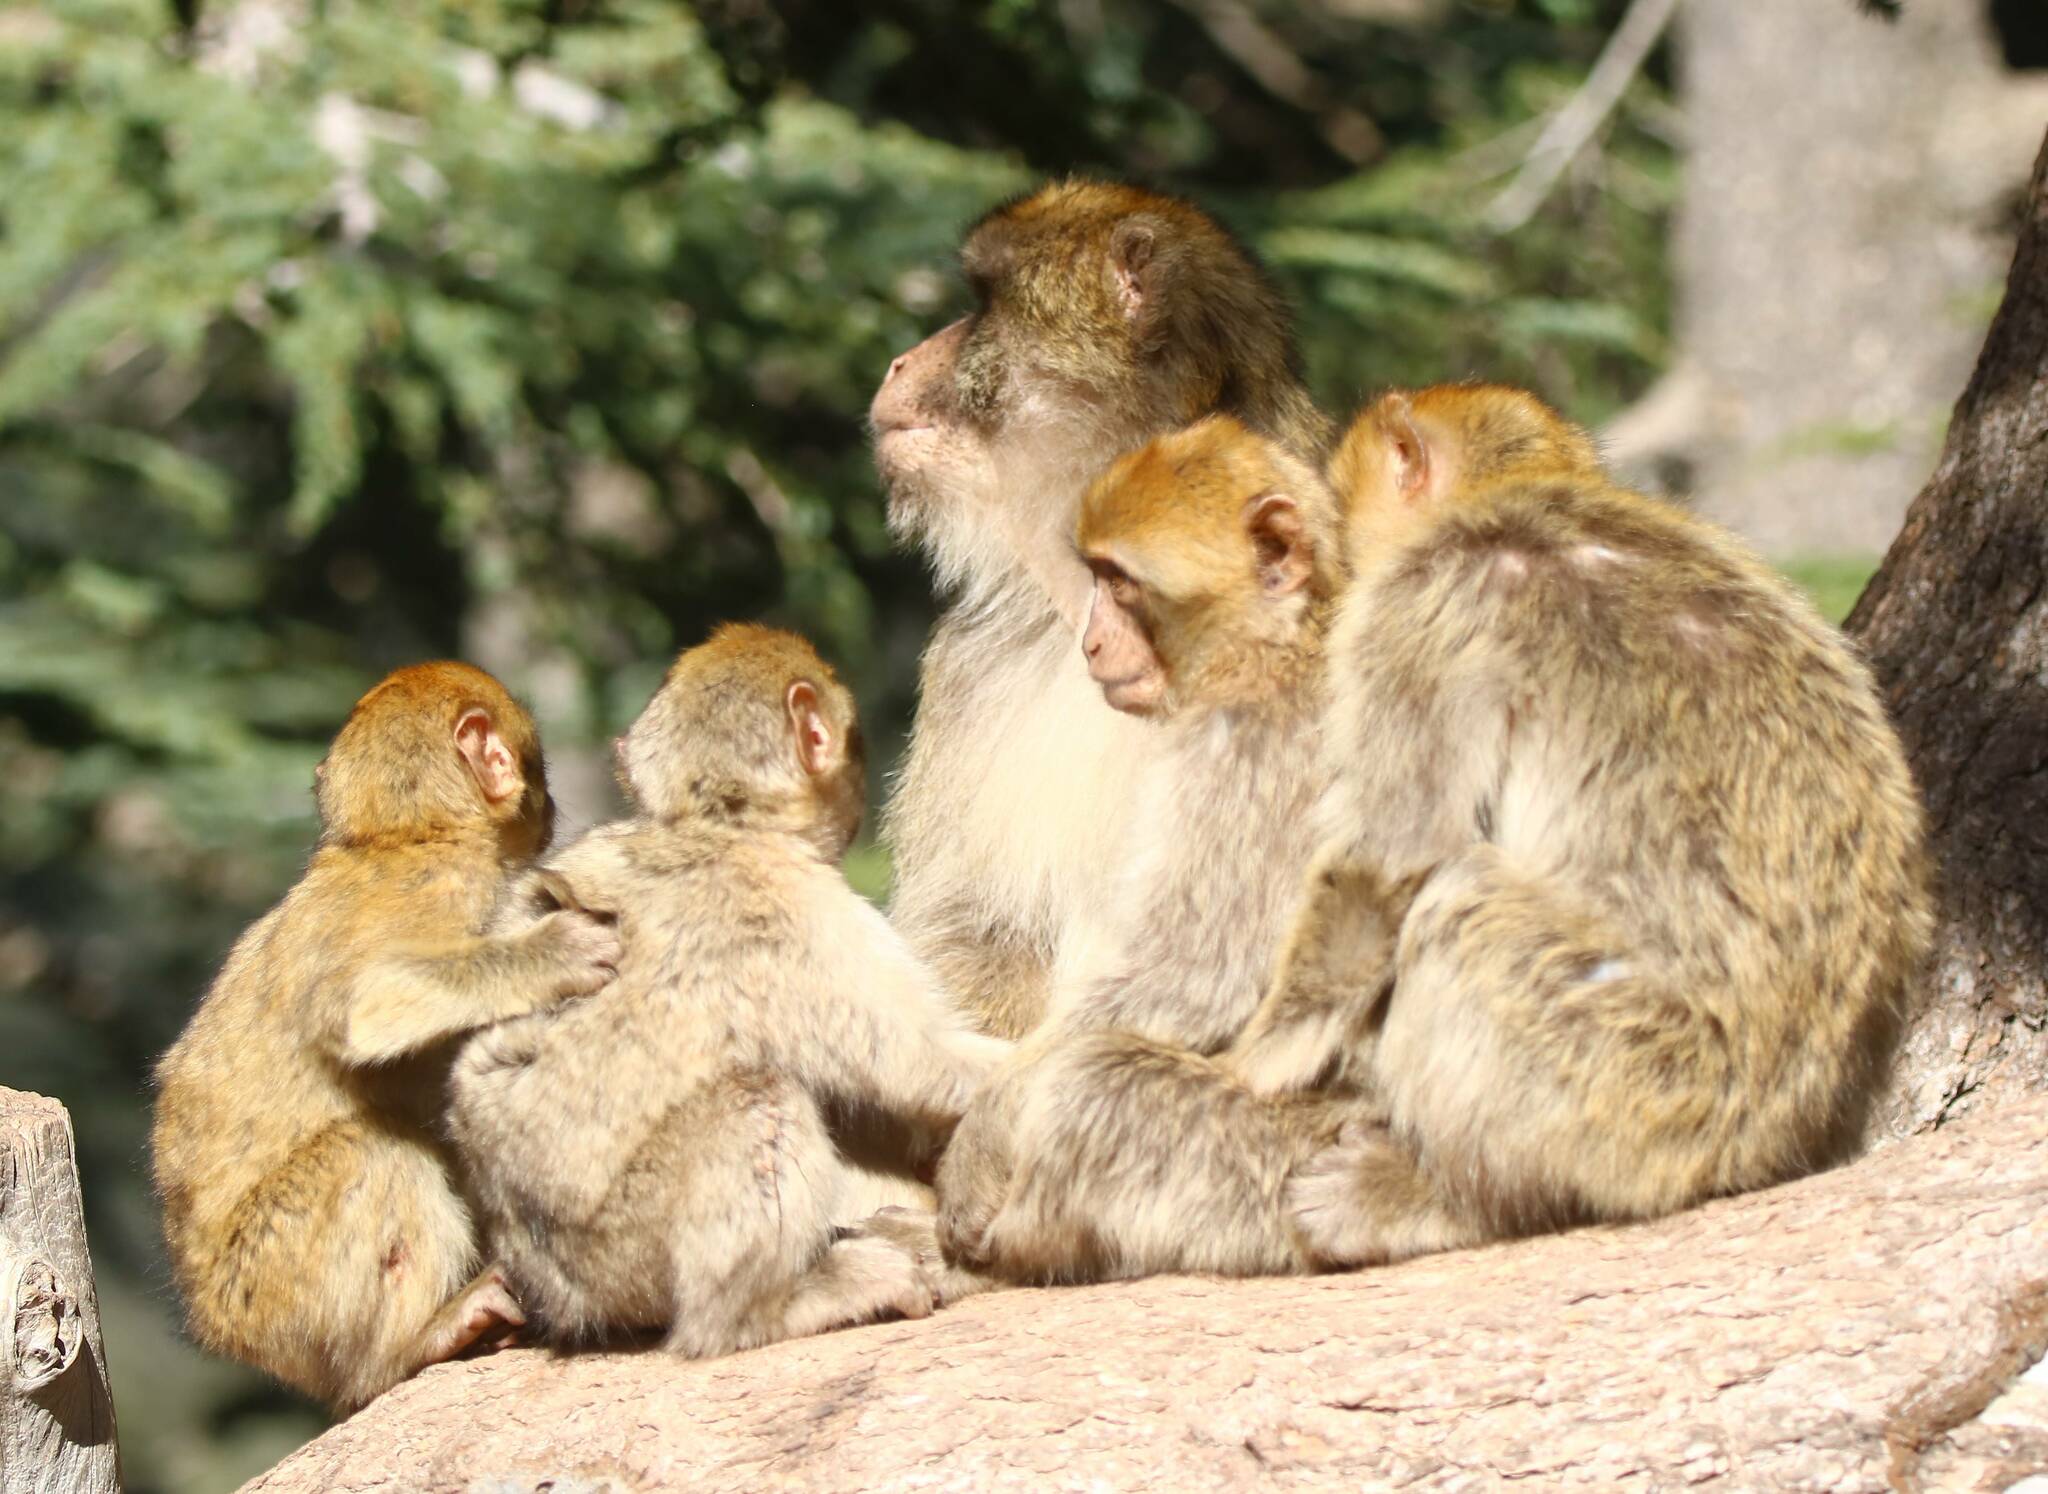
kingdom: Animalia
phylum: Chordata
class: Mammalia
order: Primates
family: Cercopithecidae
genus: Macaca
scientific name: Macaca sylvanus
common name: Barbary macaque
